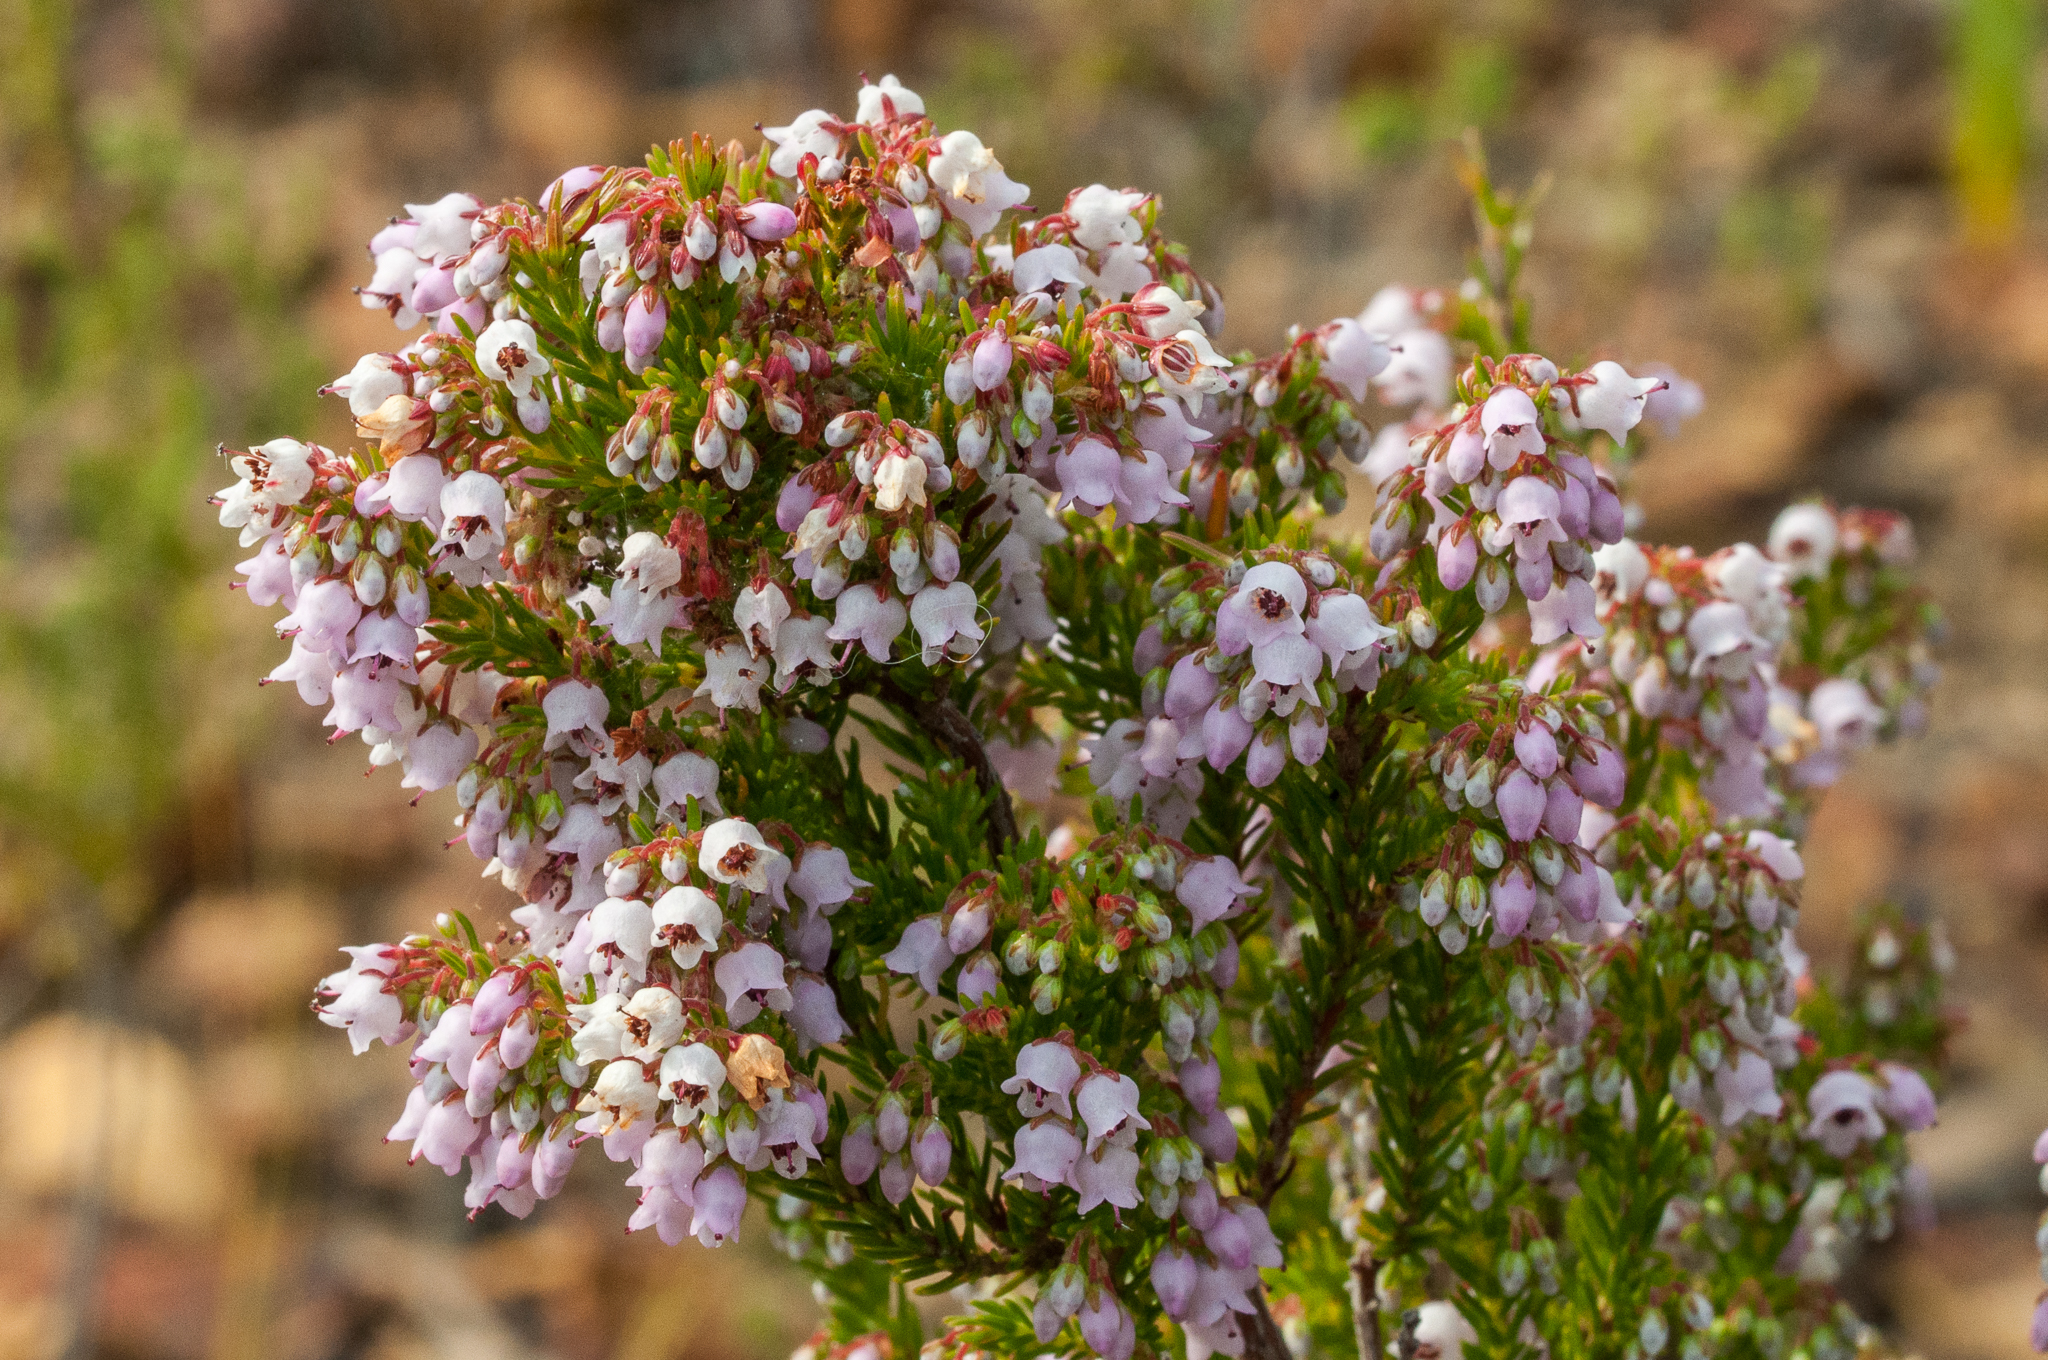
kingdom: Plantae
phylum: Tracheophyta
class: Magnoliopsida
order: Ericales
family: Ericaceae
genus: Erica
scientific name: Erica curvirostris
